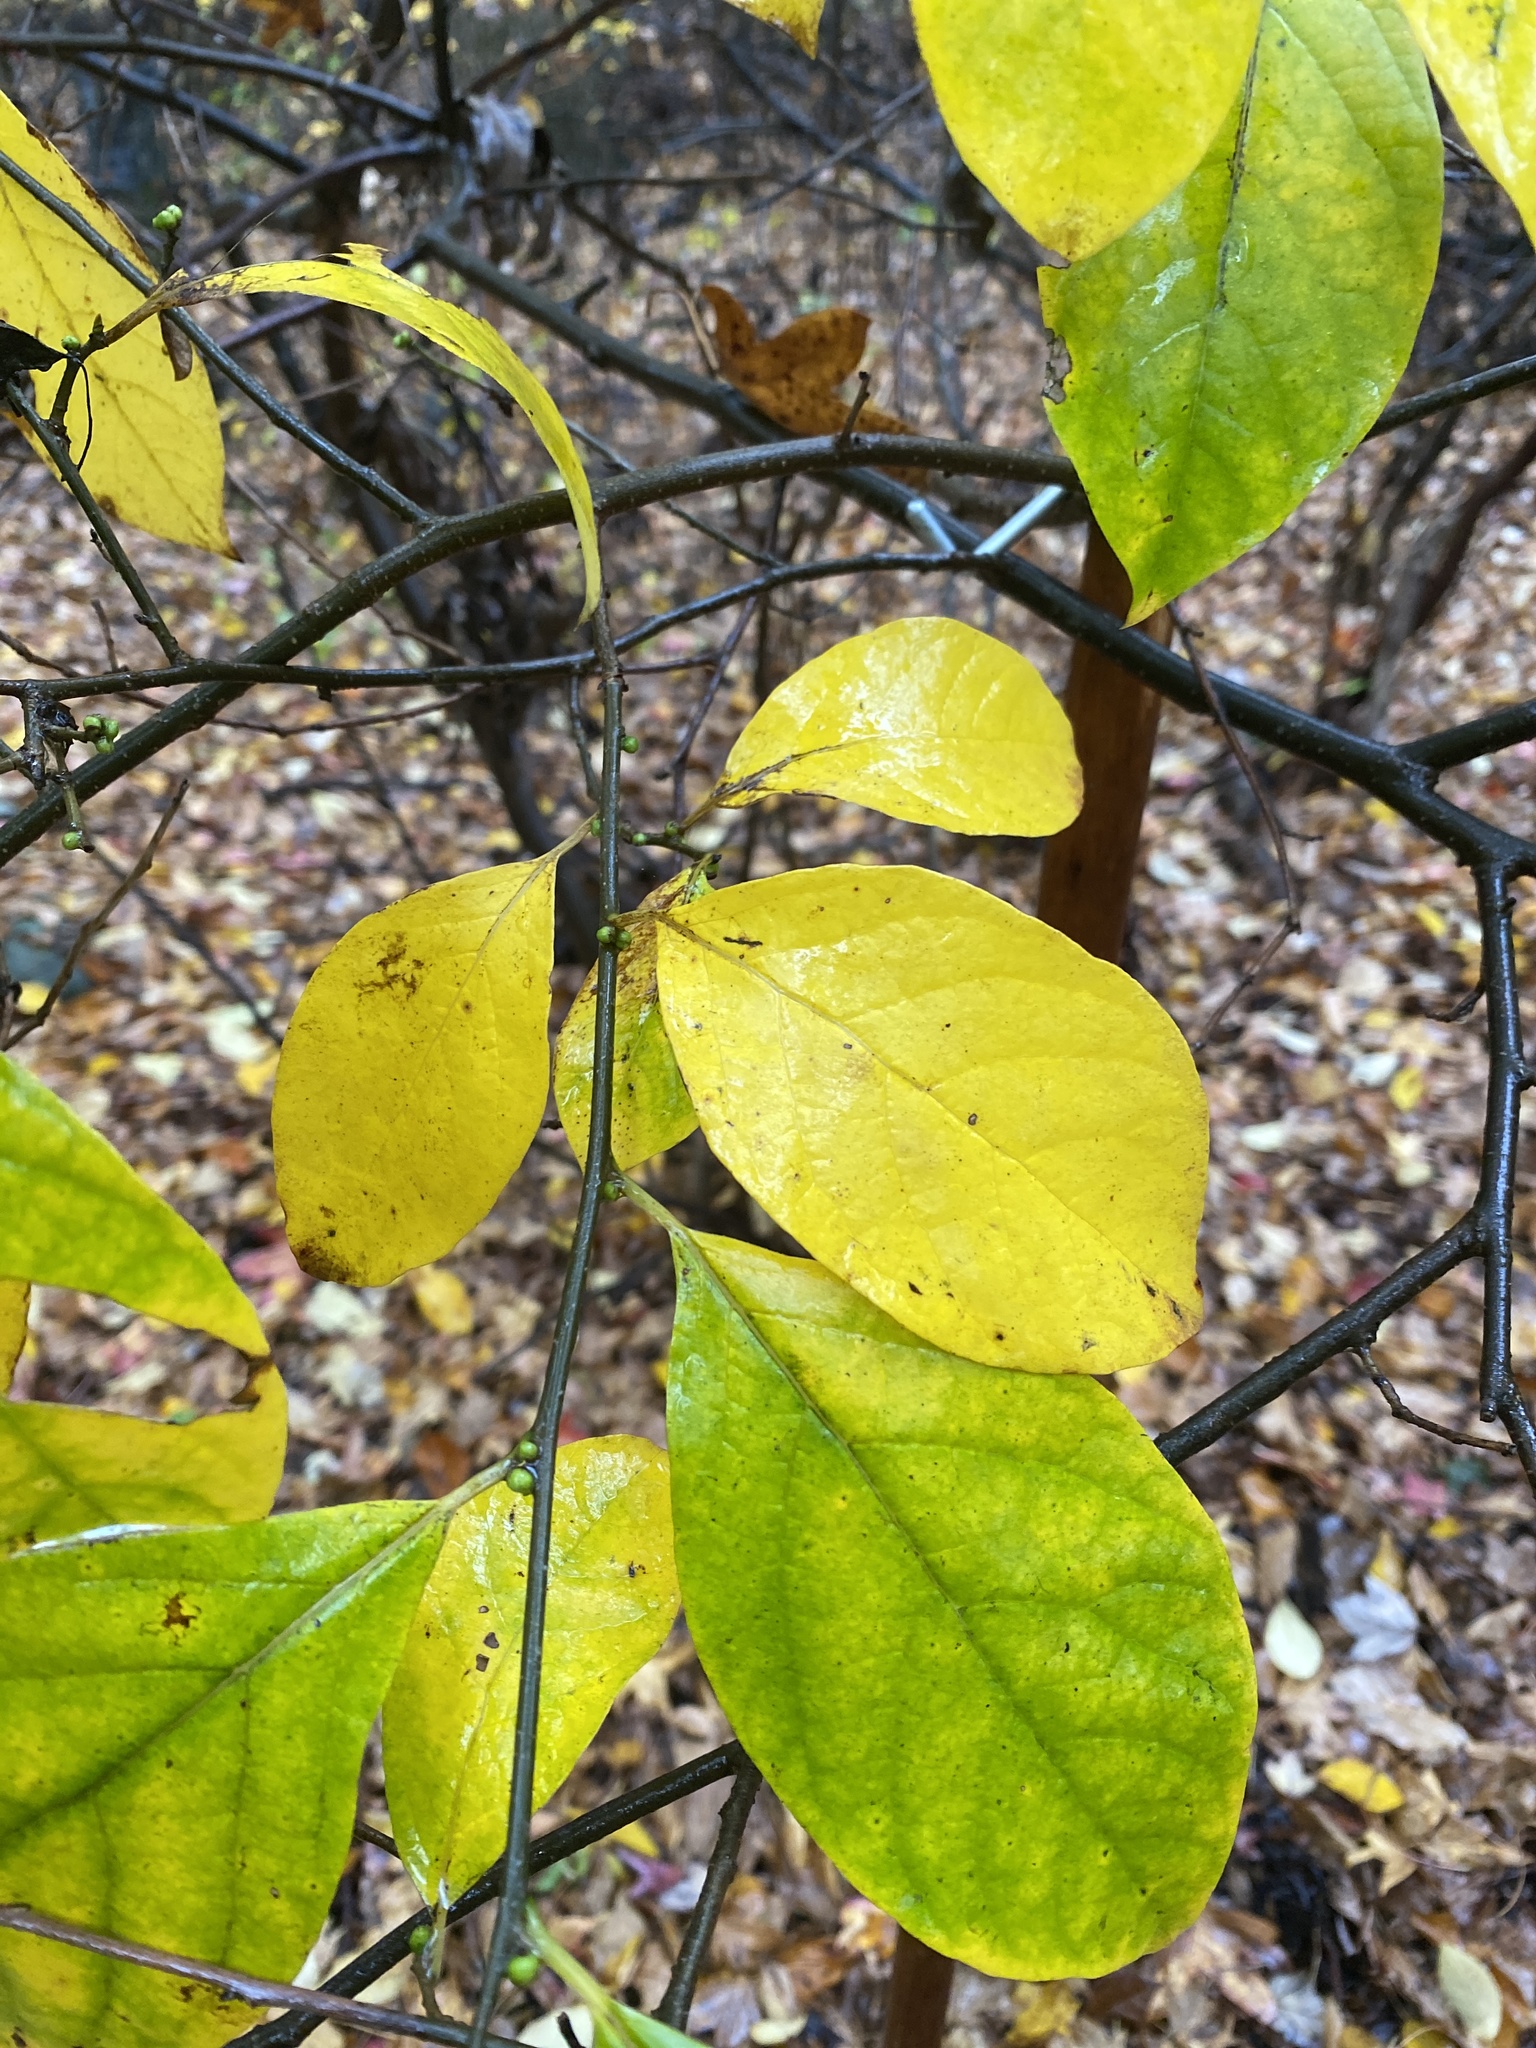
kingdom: Plantae
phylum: Tracheophyta
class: Magnoliopsida
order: Laurales
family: Lauraceae
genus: Lindera
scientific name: Lindera benzoin
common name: Spicebush
